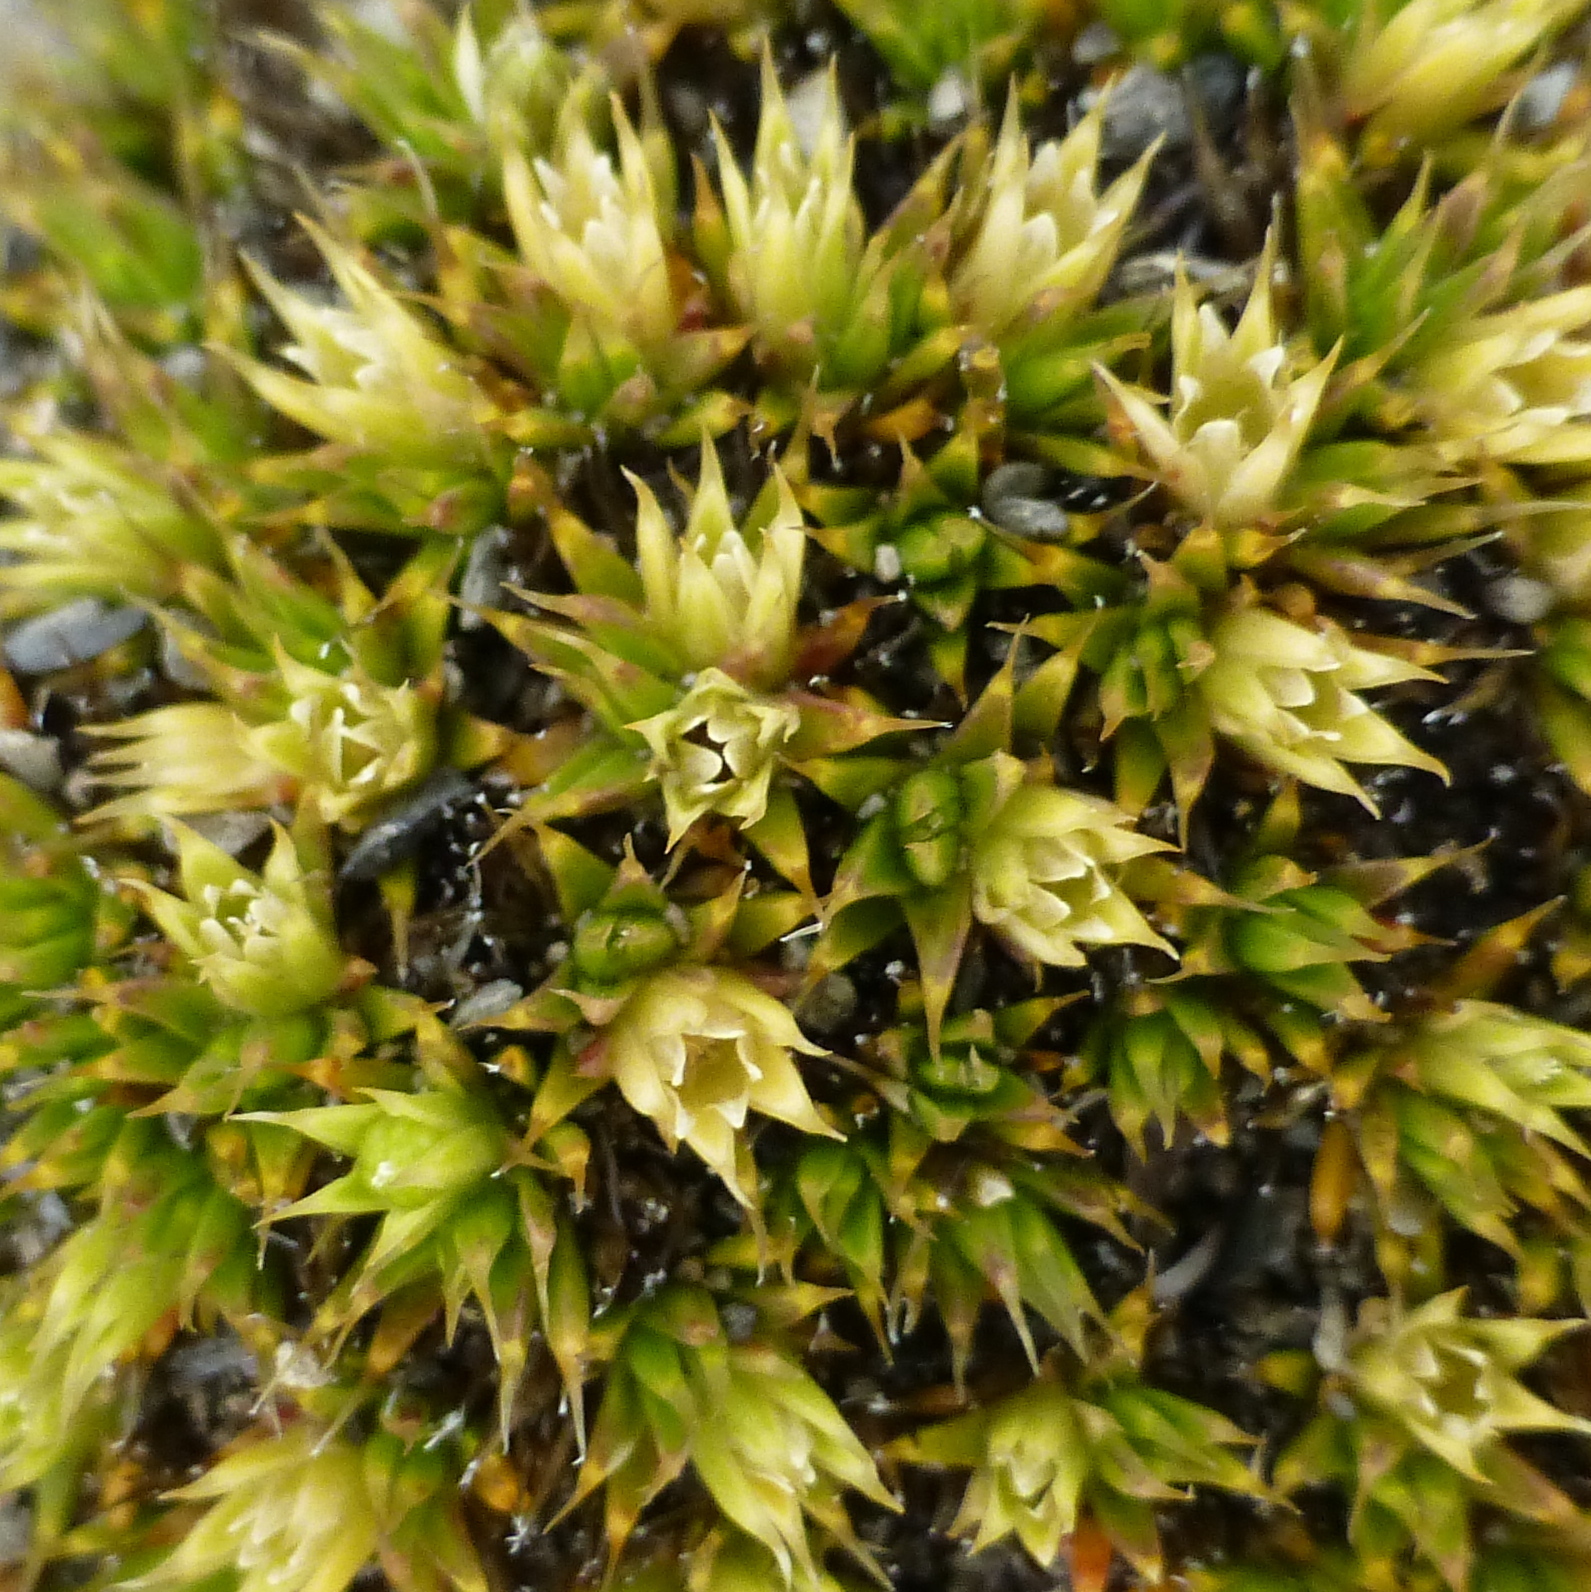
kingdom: Plantae
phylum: Tracheophyta
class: Magnoliopsida
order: Caryophyllales
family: Caryophyllaceae
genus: Colobanthus
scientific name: Colobanthus buchananii
